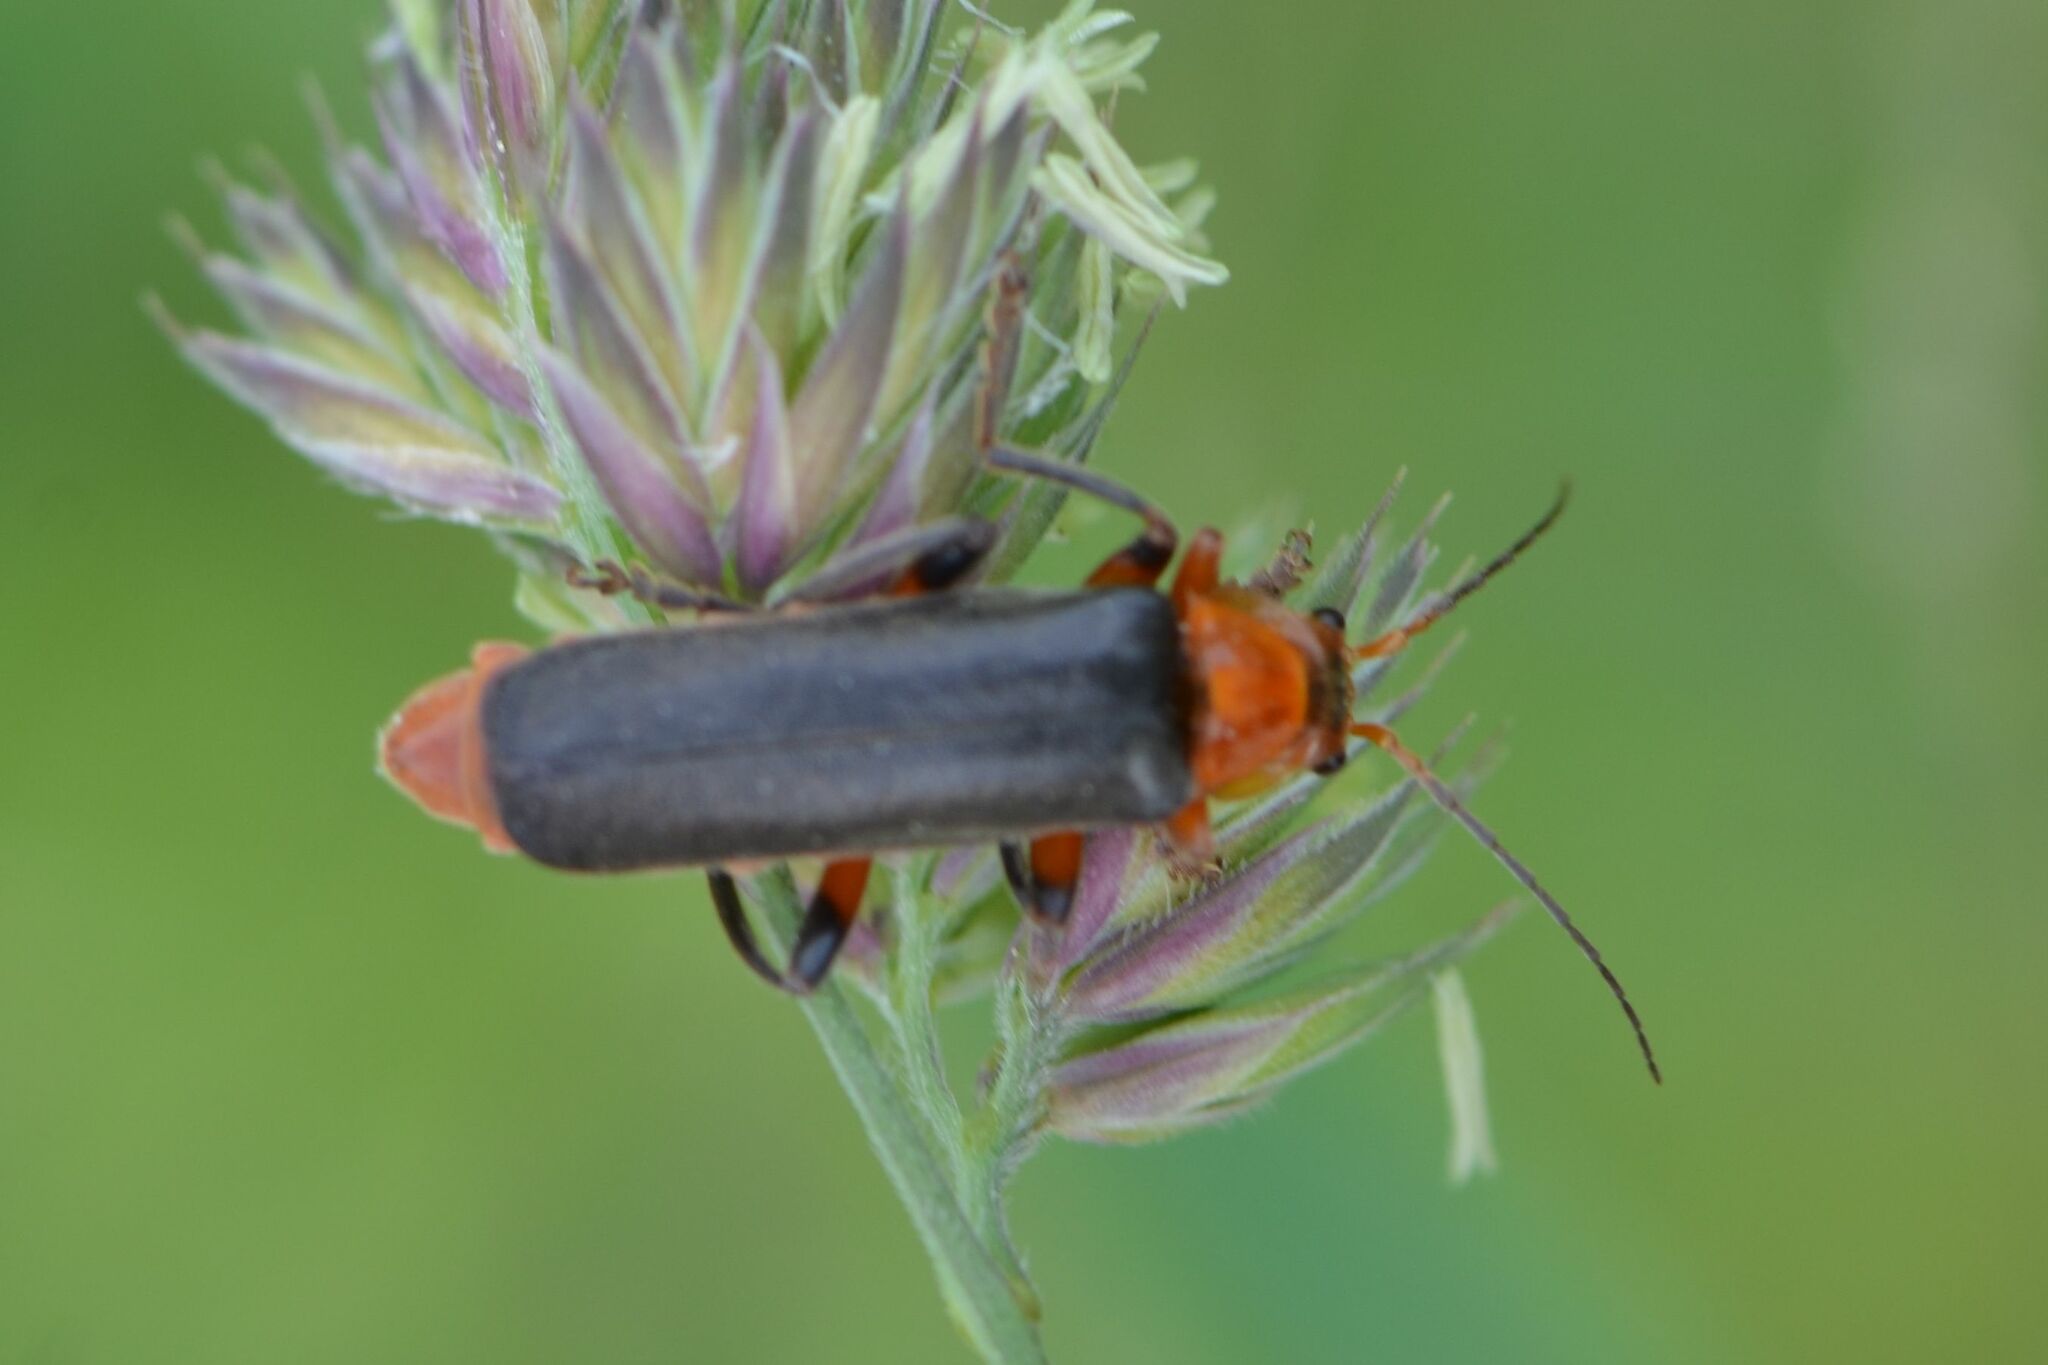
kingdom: Animalia
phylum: Arthropoda
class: Insecta
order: Coleoptera
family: Cantharidae
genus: Cantharis
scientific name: Cantharis livida
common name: Livid soldier beetle
